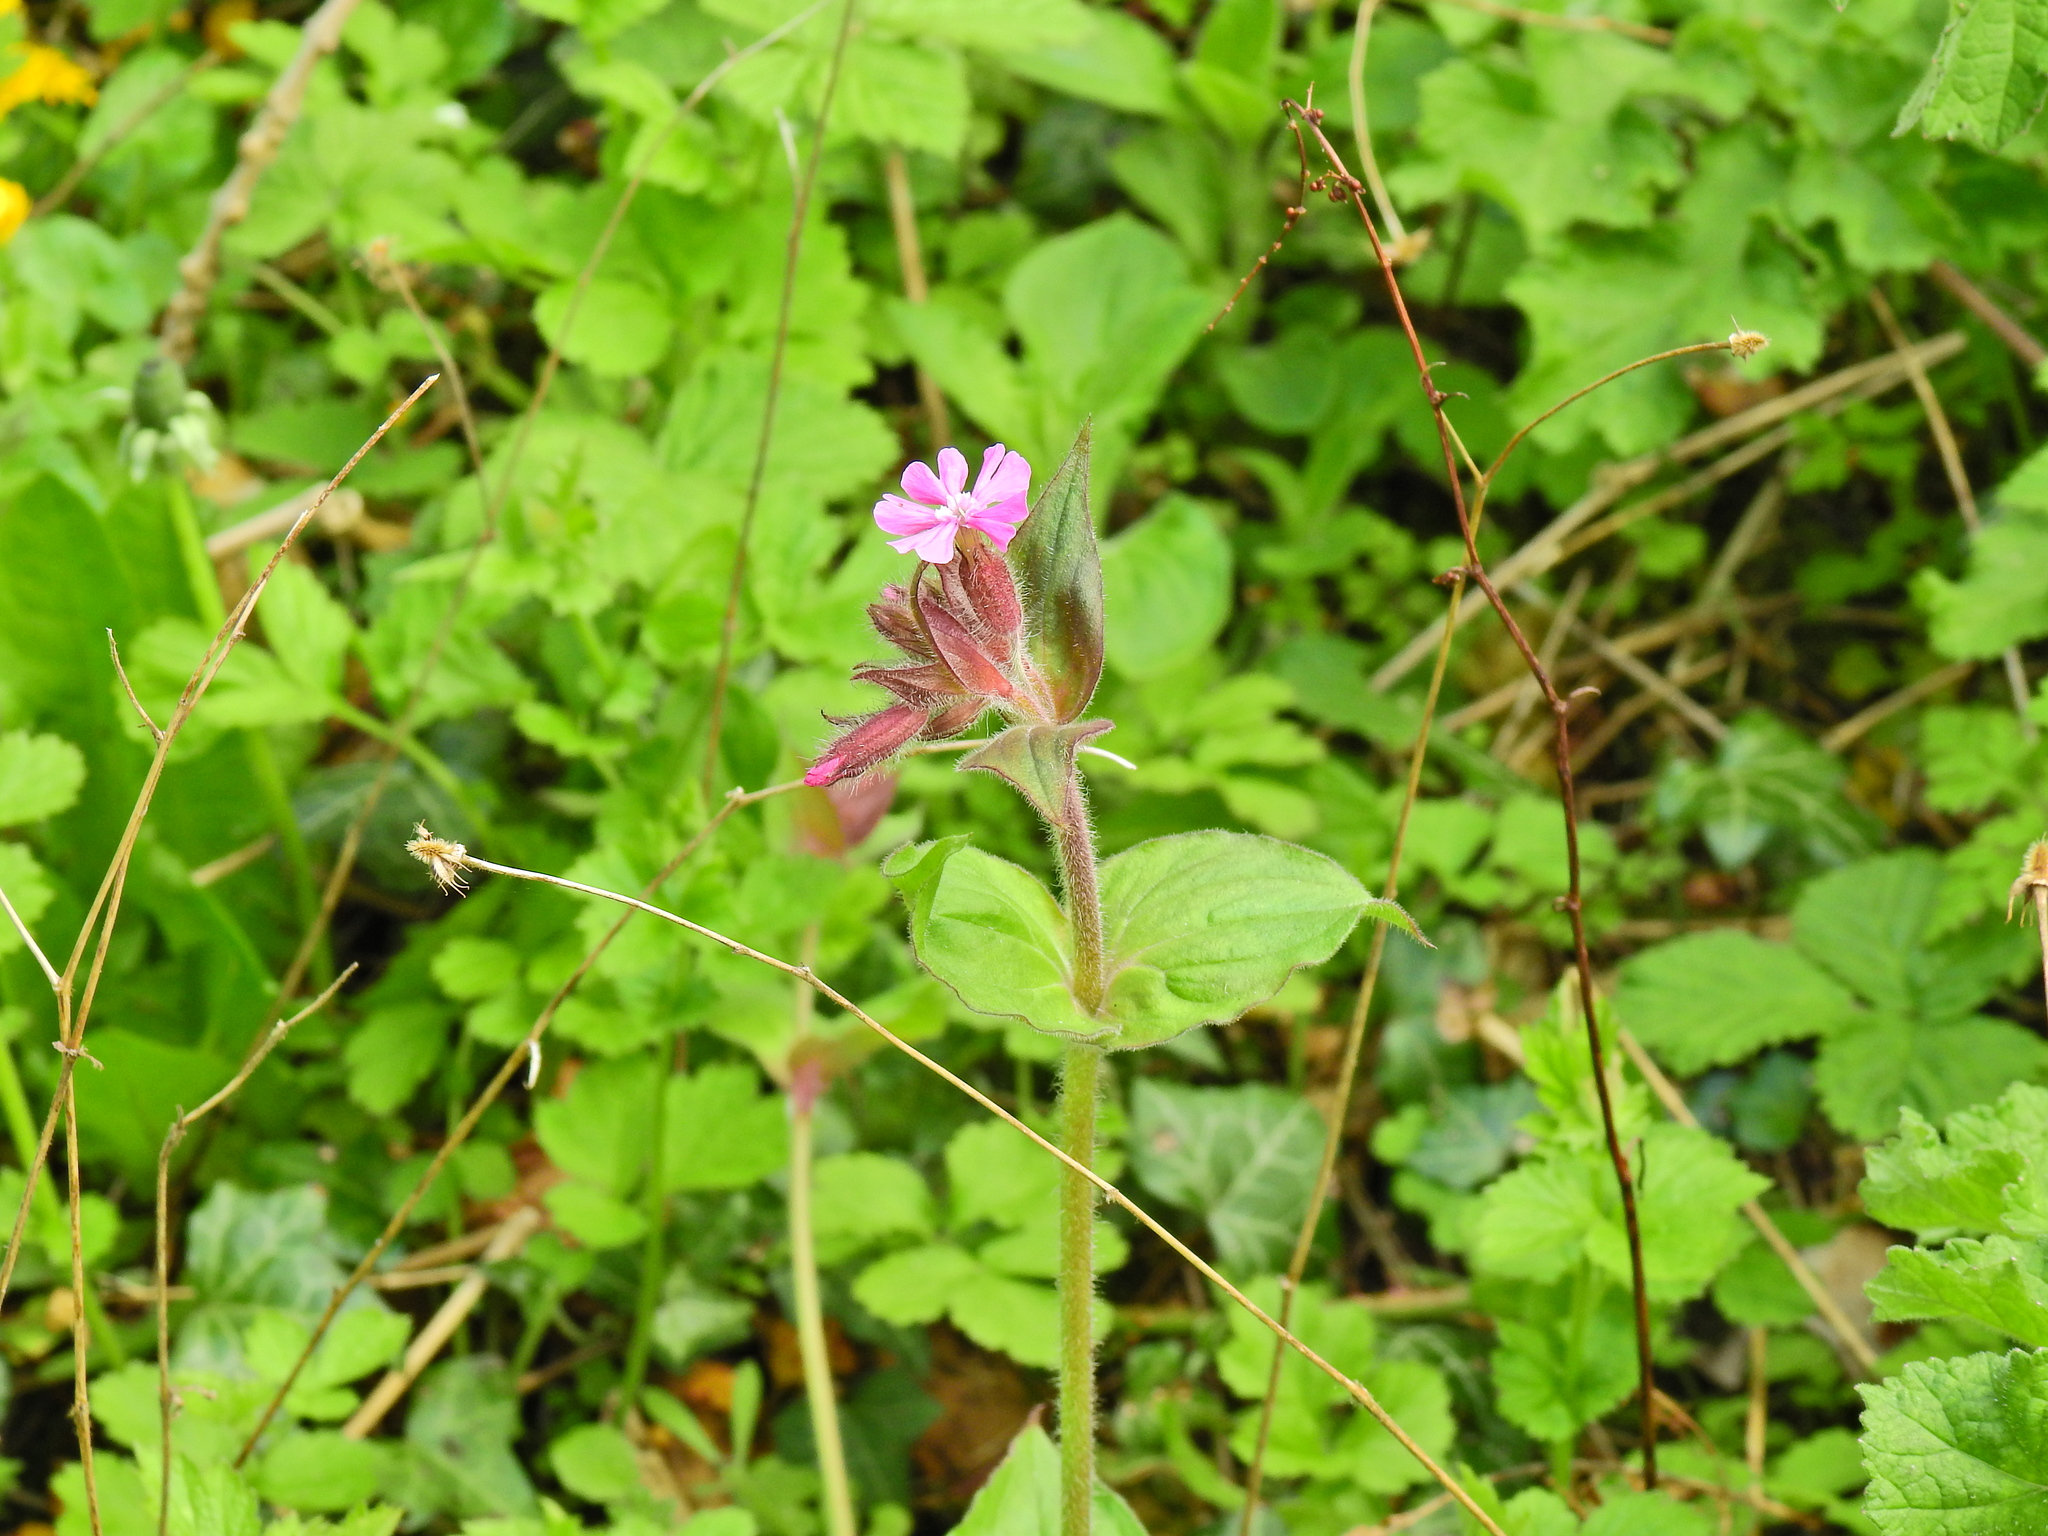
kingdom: Plantae
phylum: Tracheophyta
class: Magnoliopsida
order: Caryophyllales
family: Caryophyllaceae
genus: Silene
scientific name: Silene dioica
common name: Red campion
